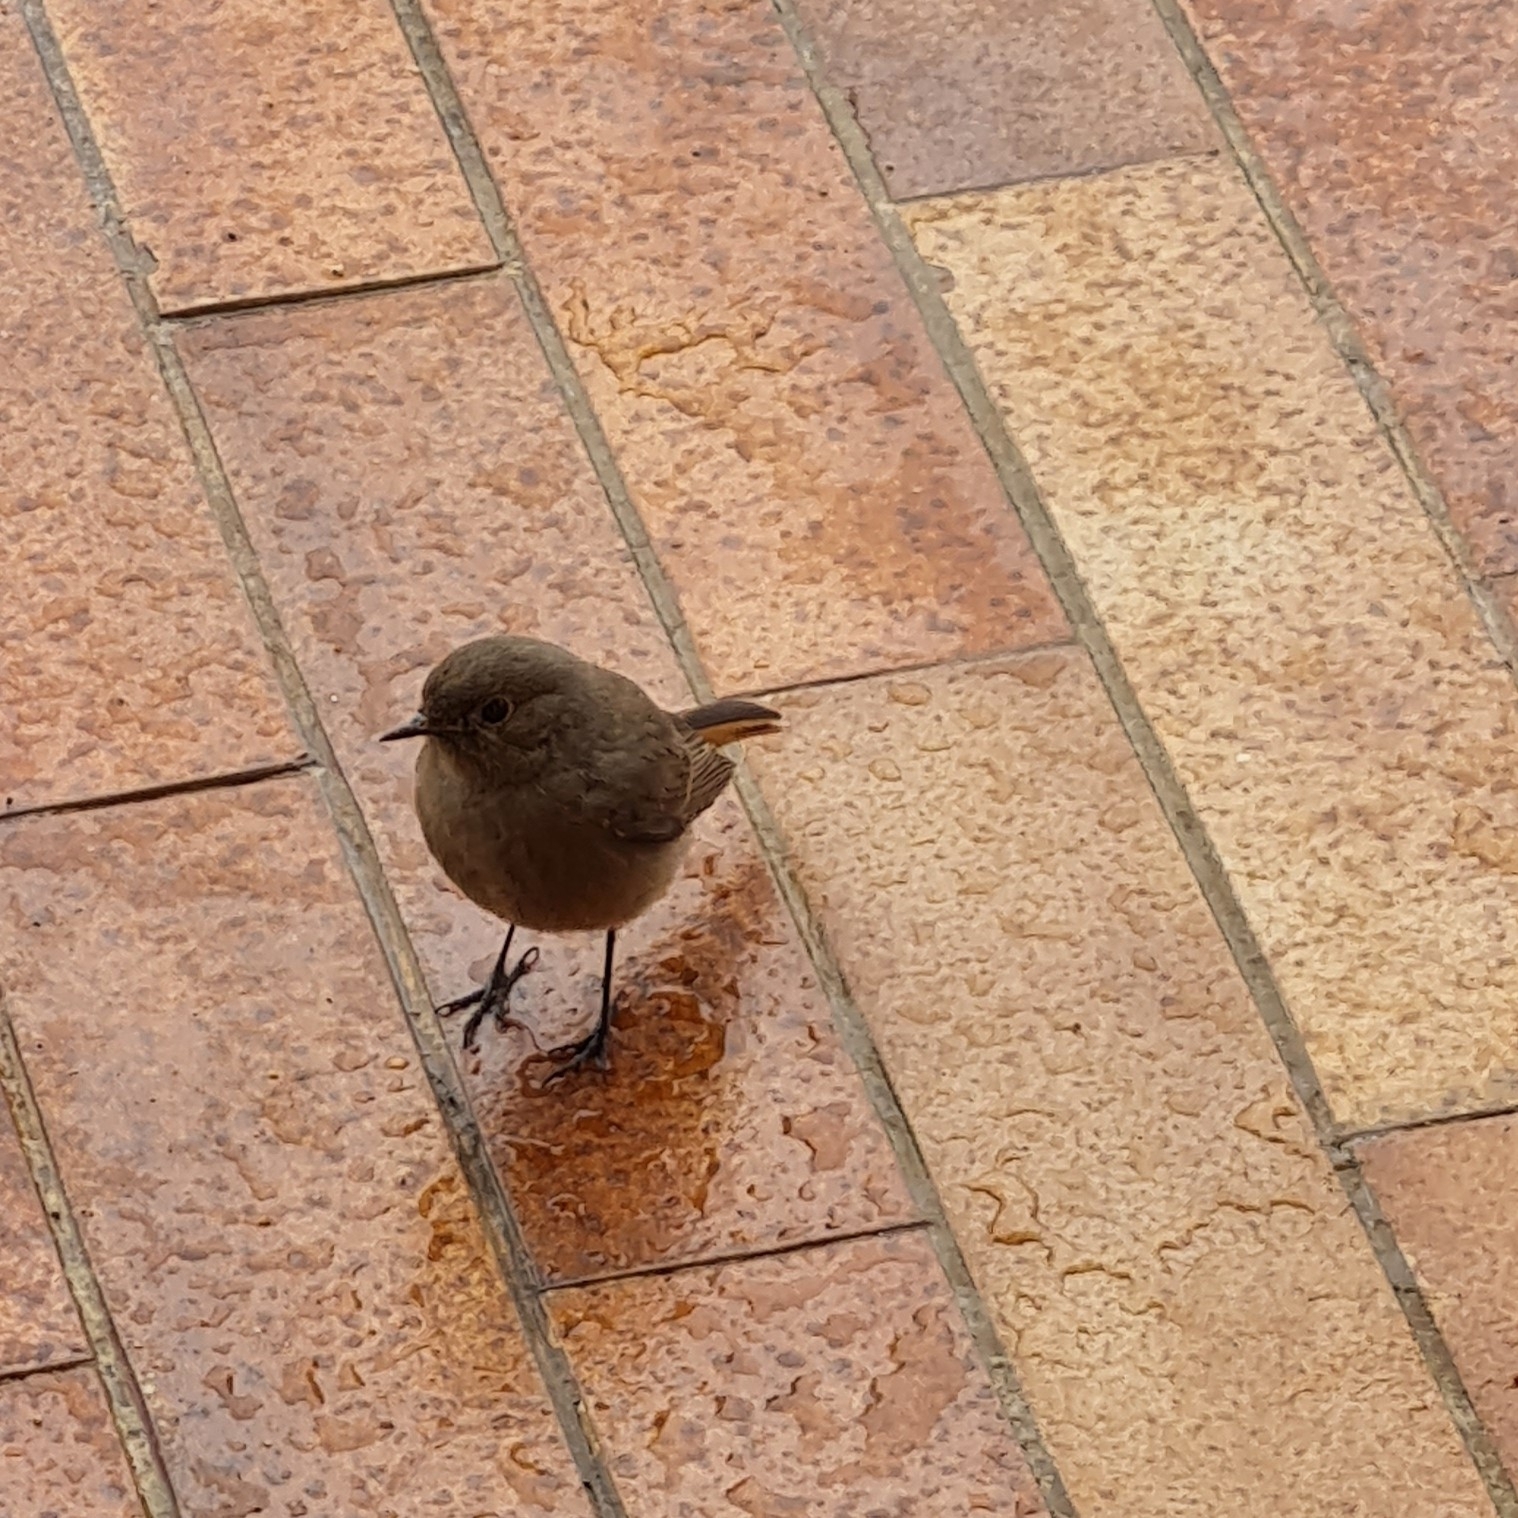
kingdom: Animalia
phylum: Chordata
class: Aves
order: Passeriformes
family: Muscicapidae
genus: Phoenicurus
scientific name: Phoenicurus ochruros
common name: Black redstart
